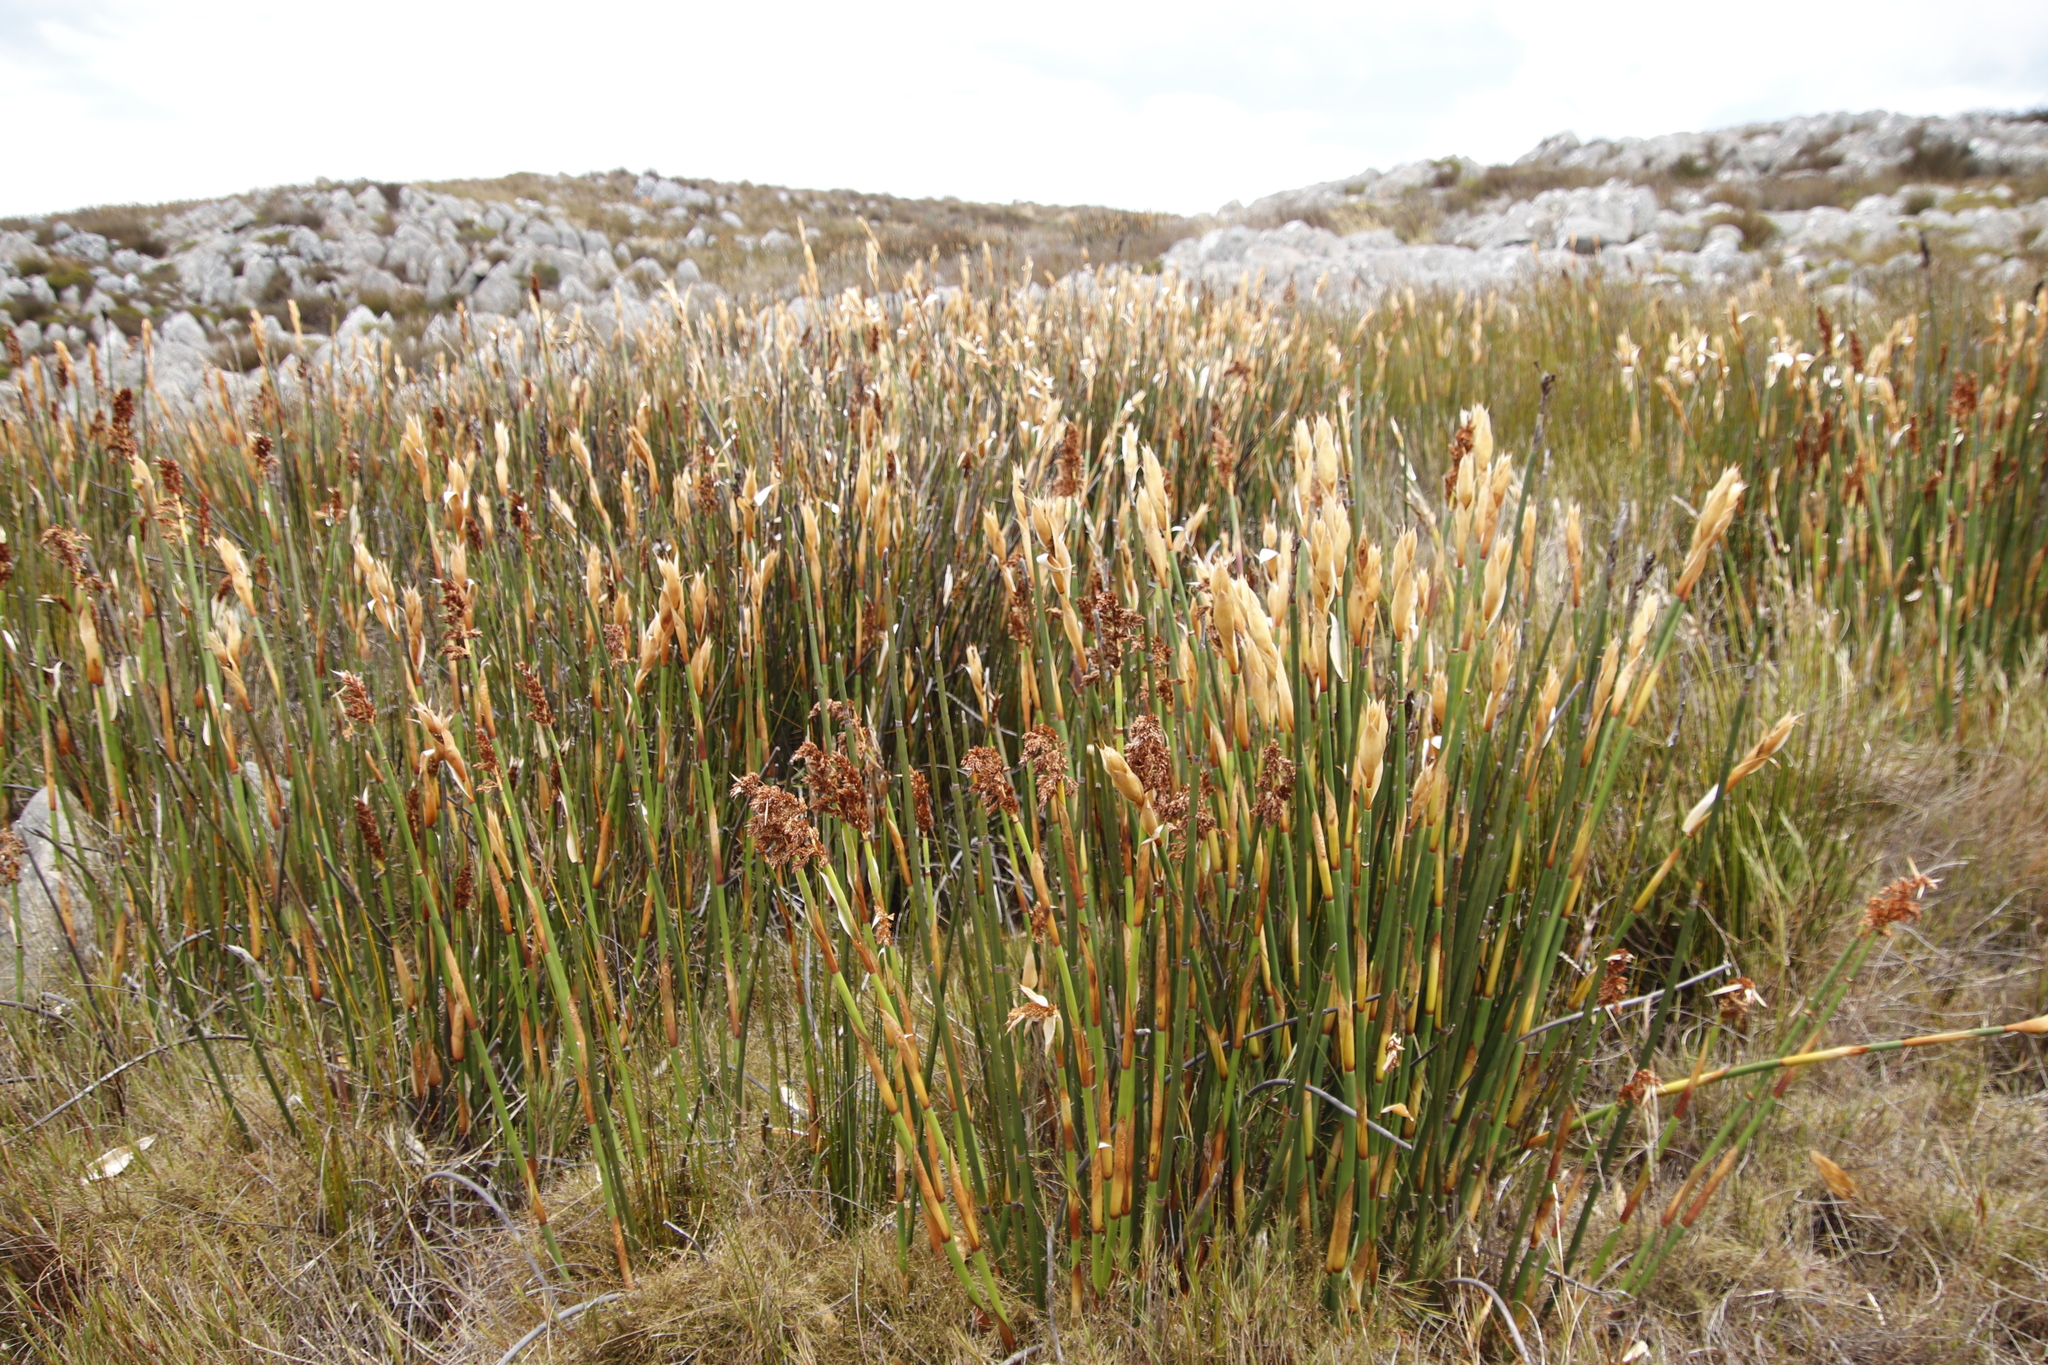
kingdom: Plantae
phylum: Tracheophyta
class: Liliopsida
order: Poales
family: Restionaceae
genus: Elegia
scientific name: Elegia mucronata
